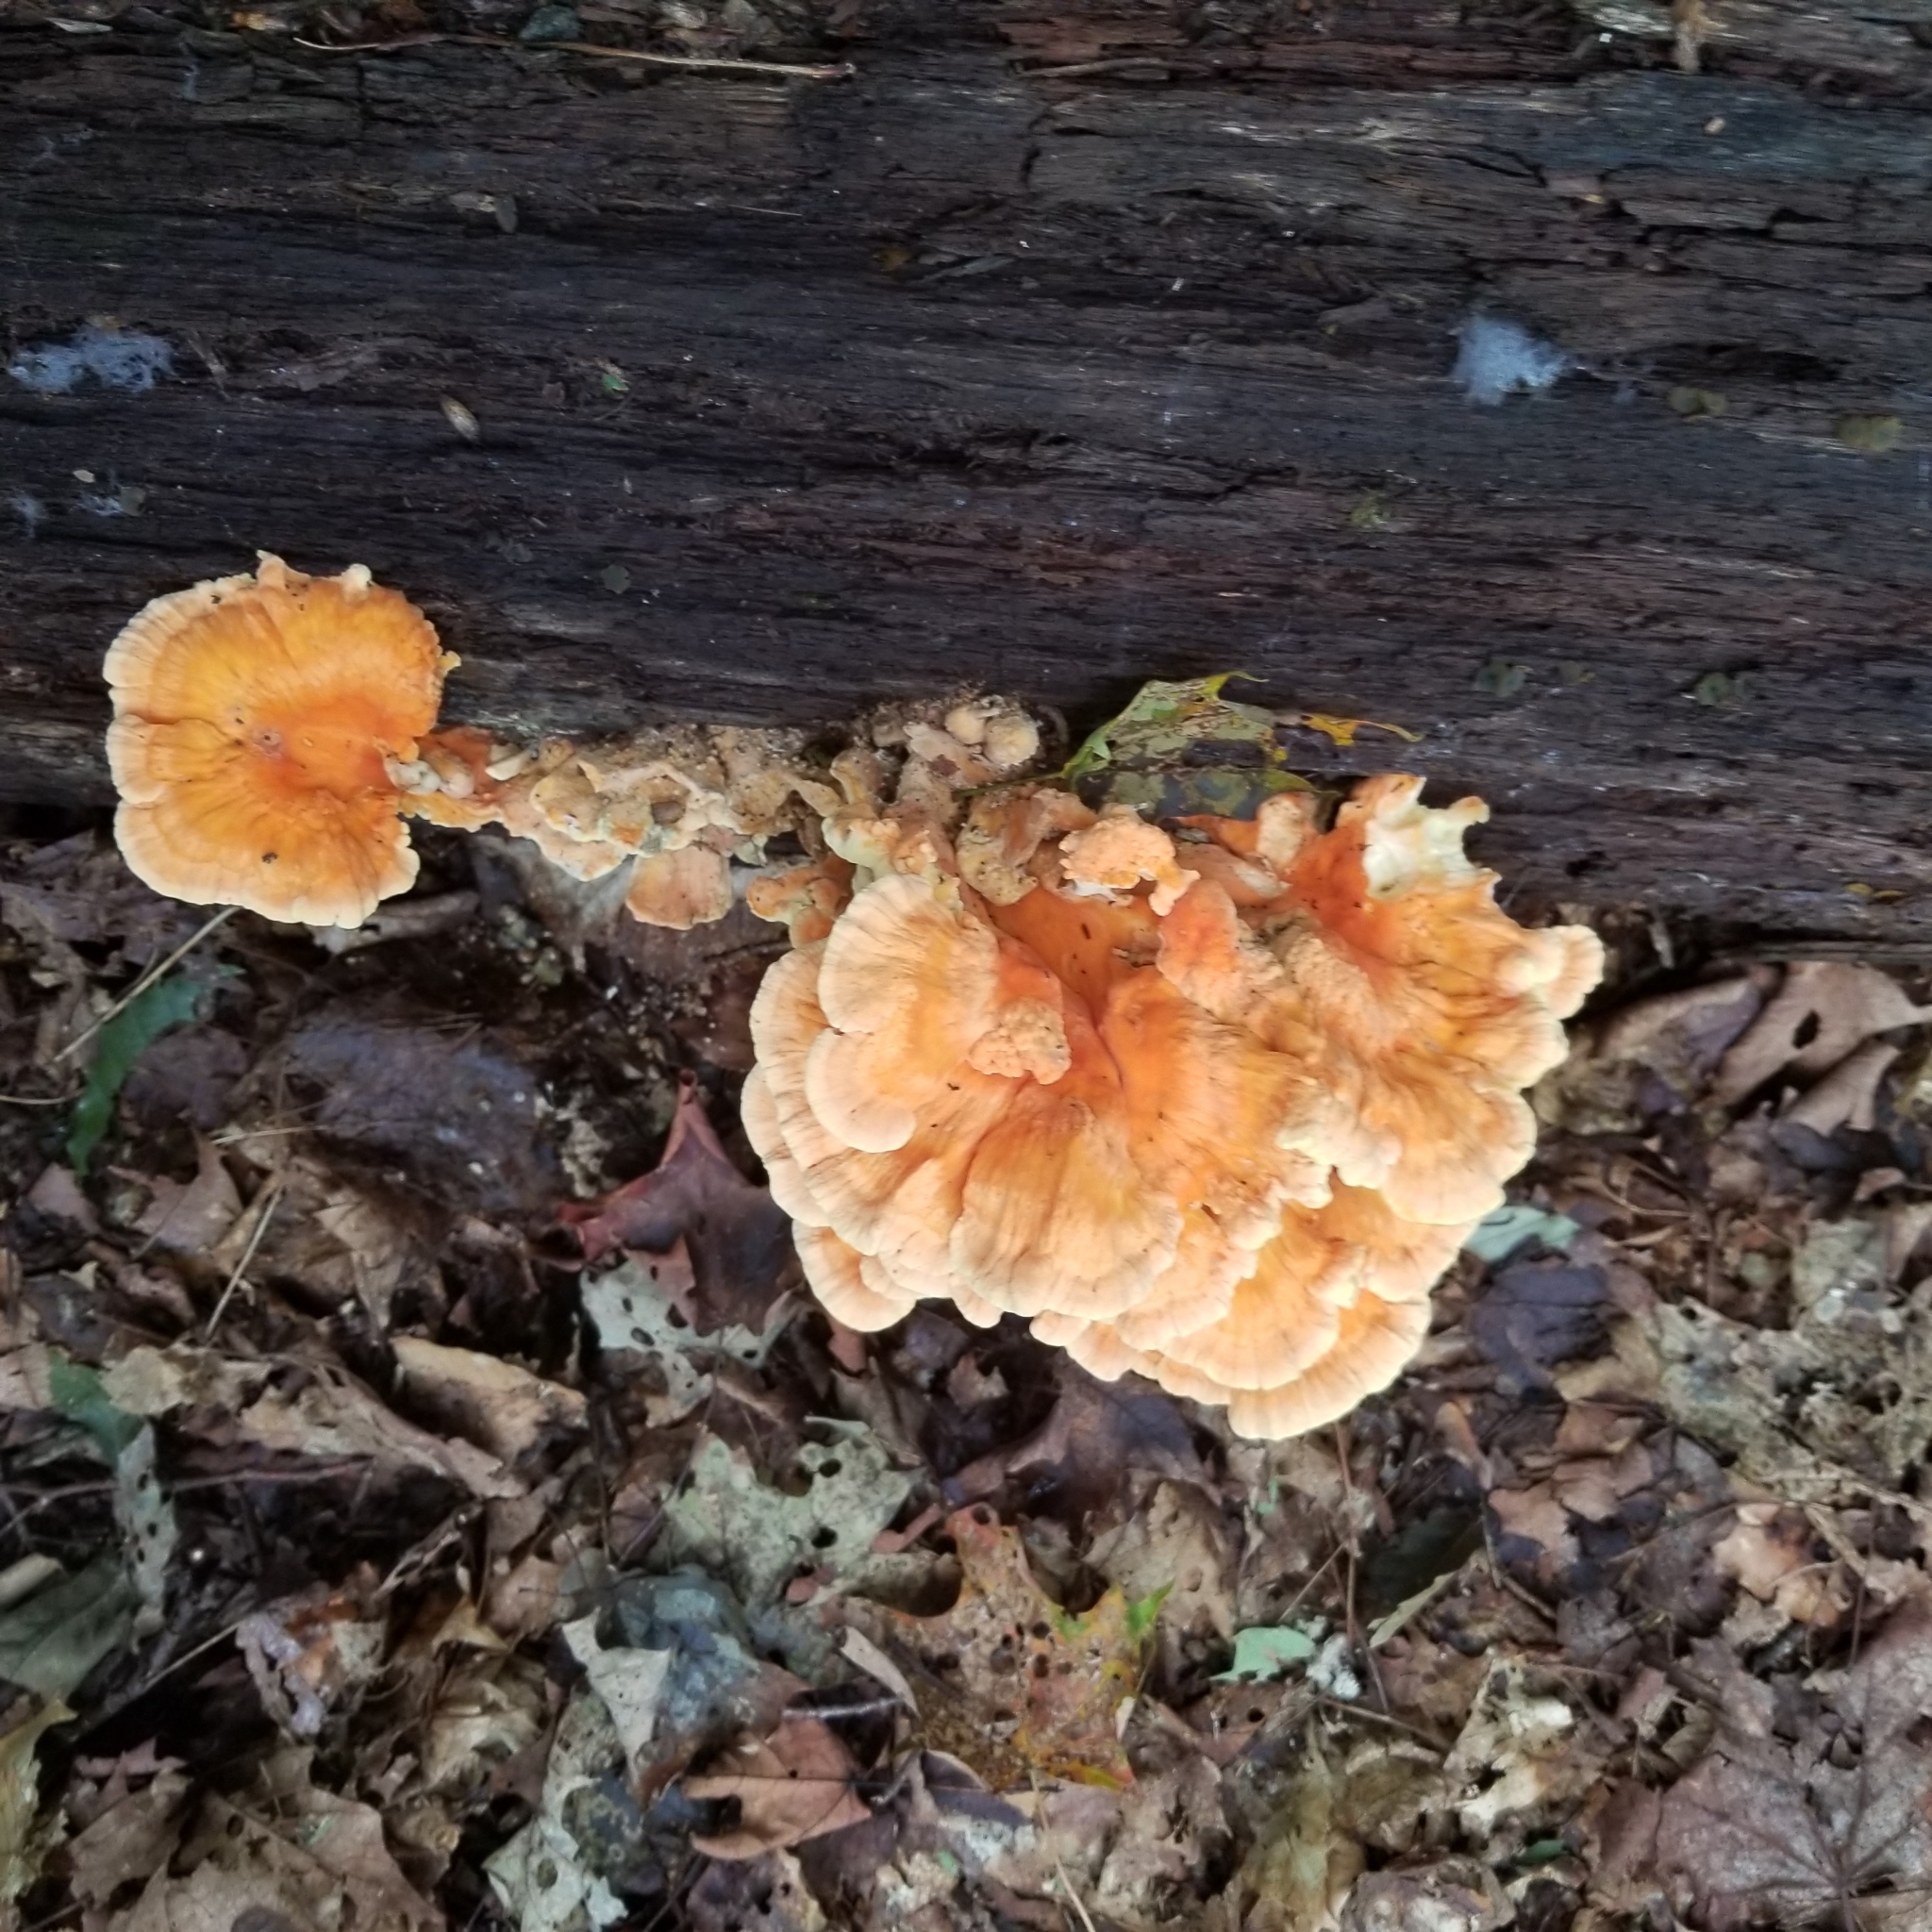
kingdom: Fungi
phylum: Basidiomycota
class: Agaricomycetes
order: Polyporales
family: Laetiporaceae
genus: Laetiporus
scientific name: Laetiporus sulphureus
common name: Chicken of the woods
